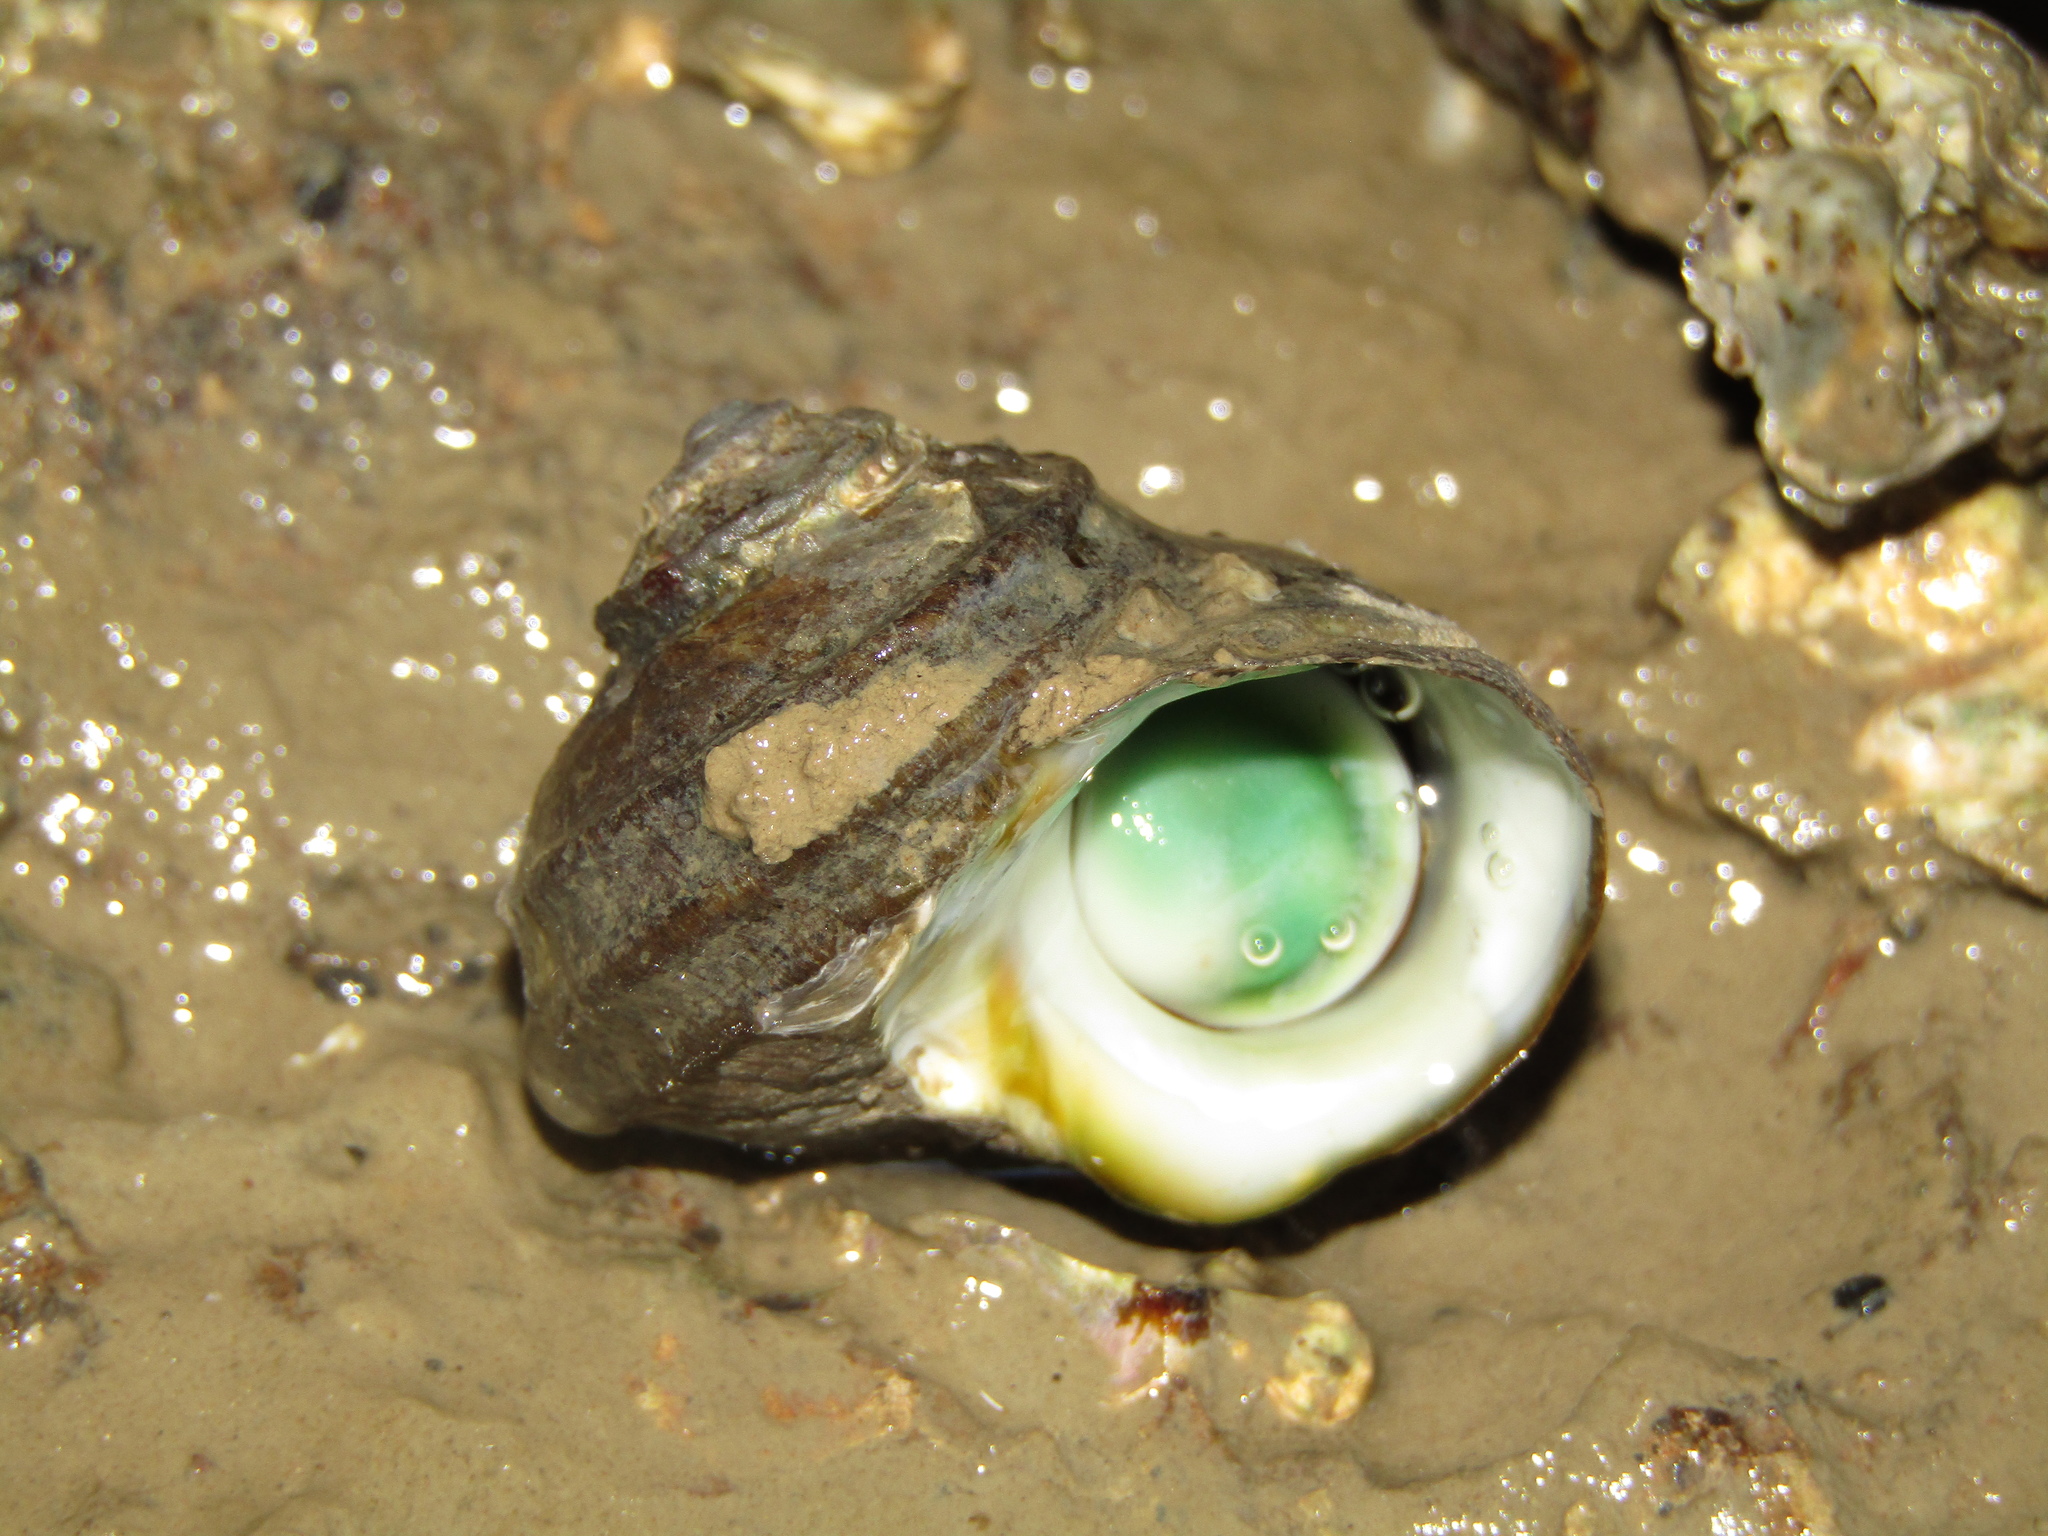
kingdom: Animalia
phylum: Mollusca
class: Gastropoda
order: Trochida
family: Turbinidae
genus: Lunella
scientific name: Lunella smaragda
